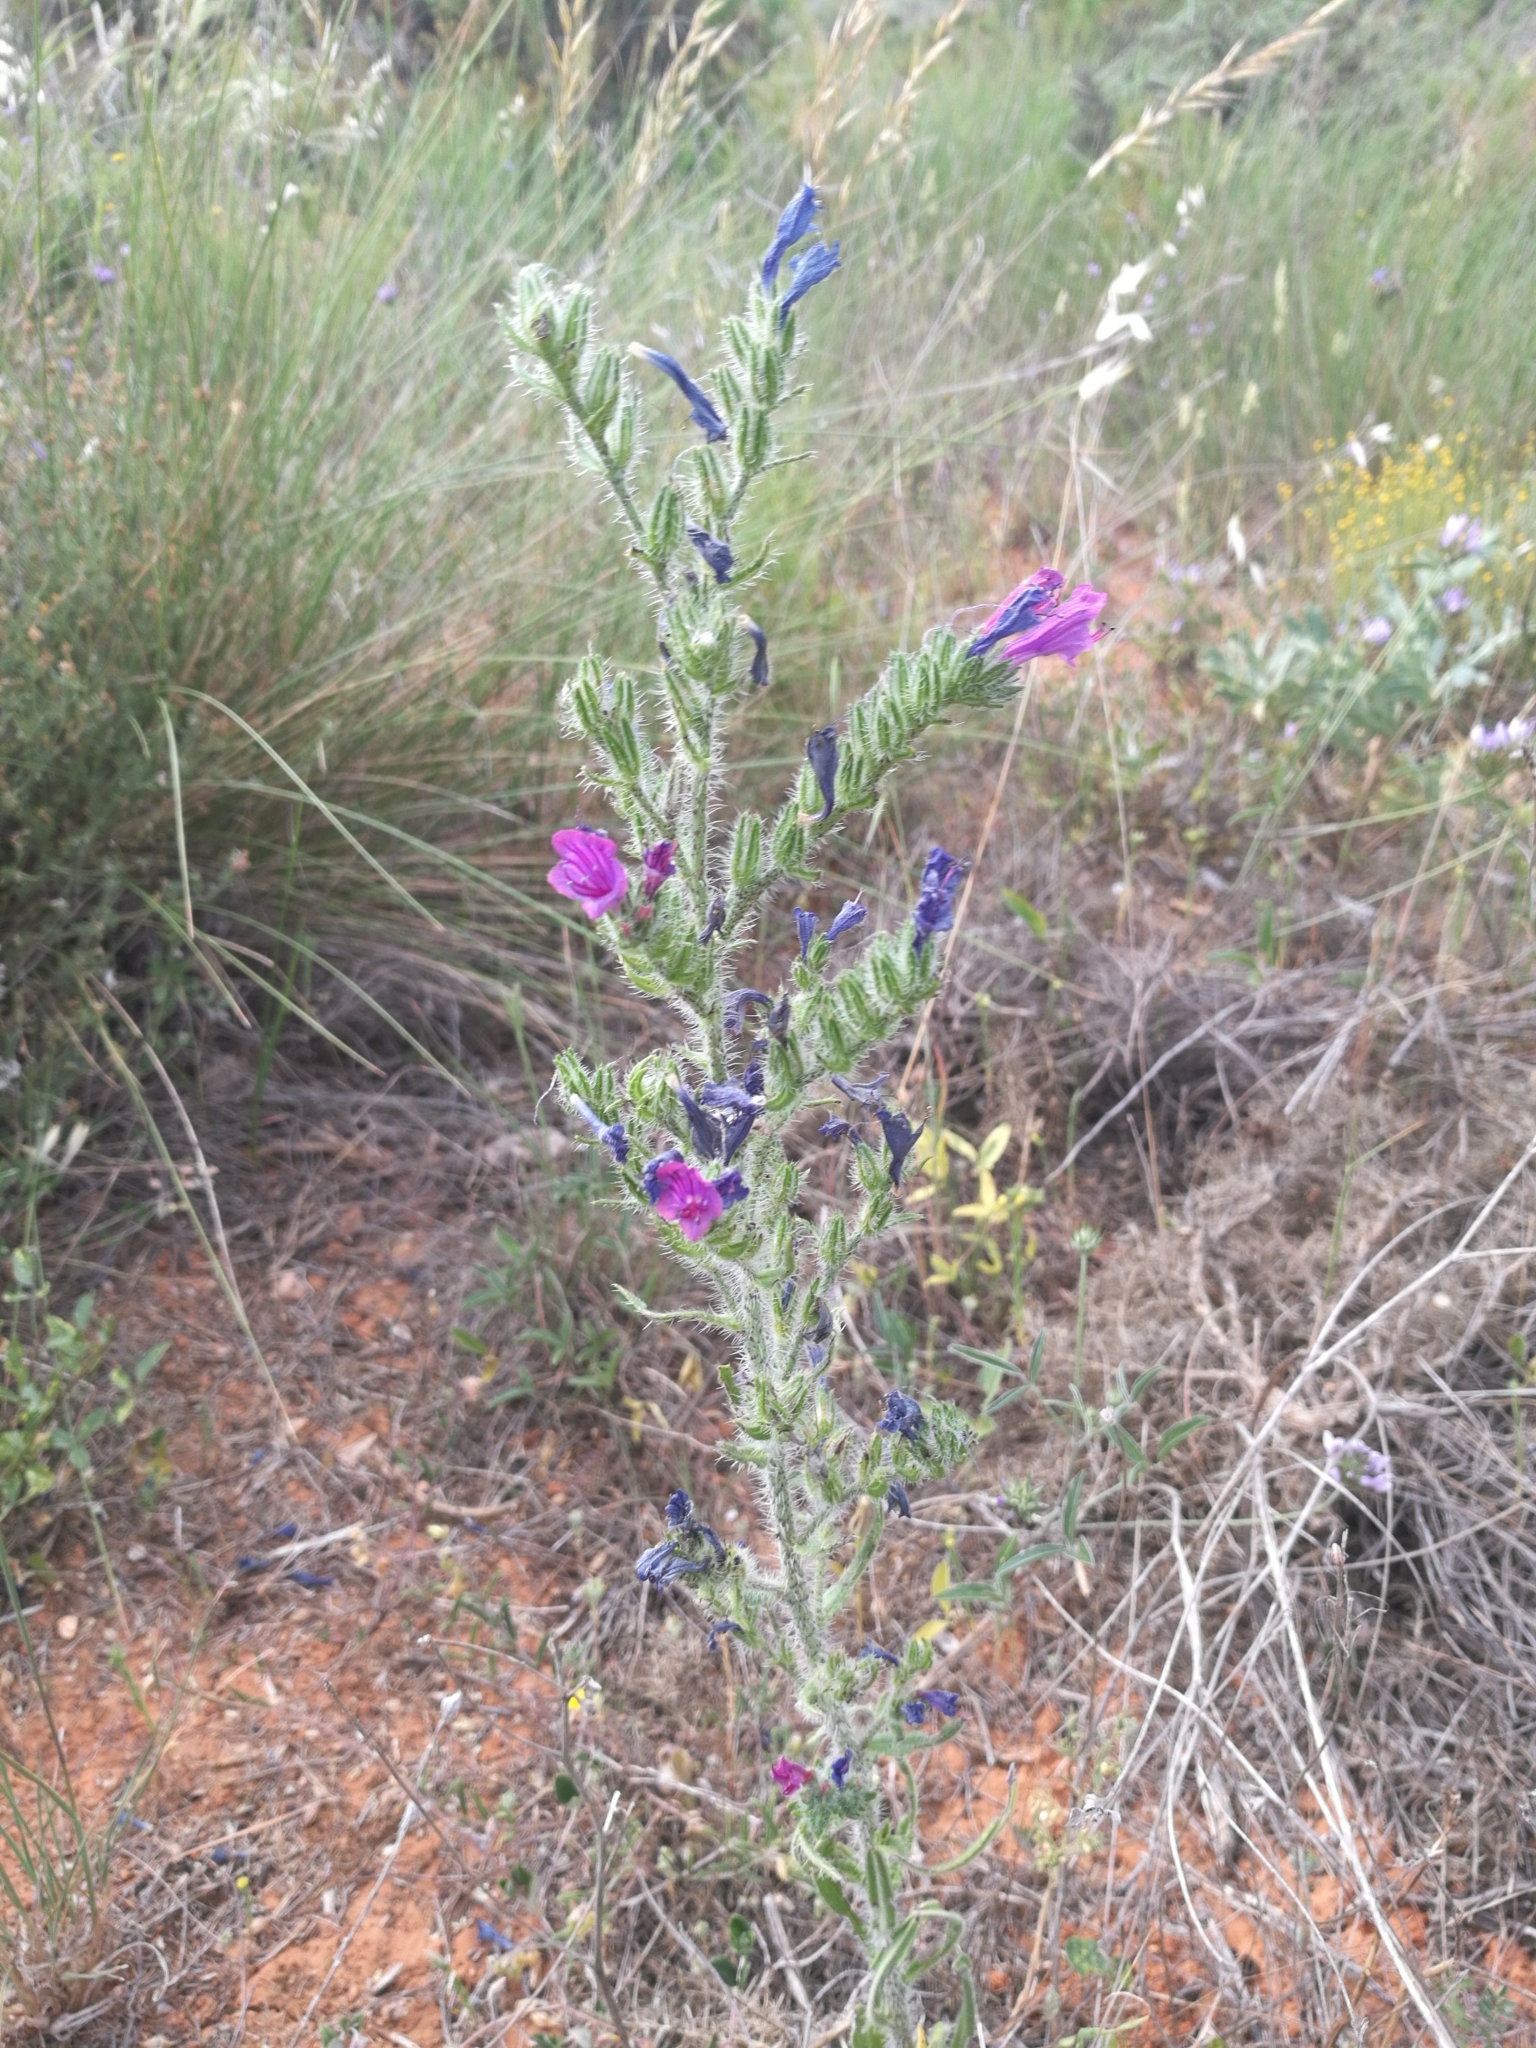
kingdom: Plantae
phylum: Tracheophyta
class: Magnoliopsida
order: Boraginales
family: Boraginaceae
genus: Echium
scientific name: Echium vulgare
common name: Common viper's bugloss
